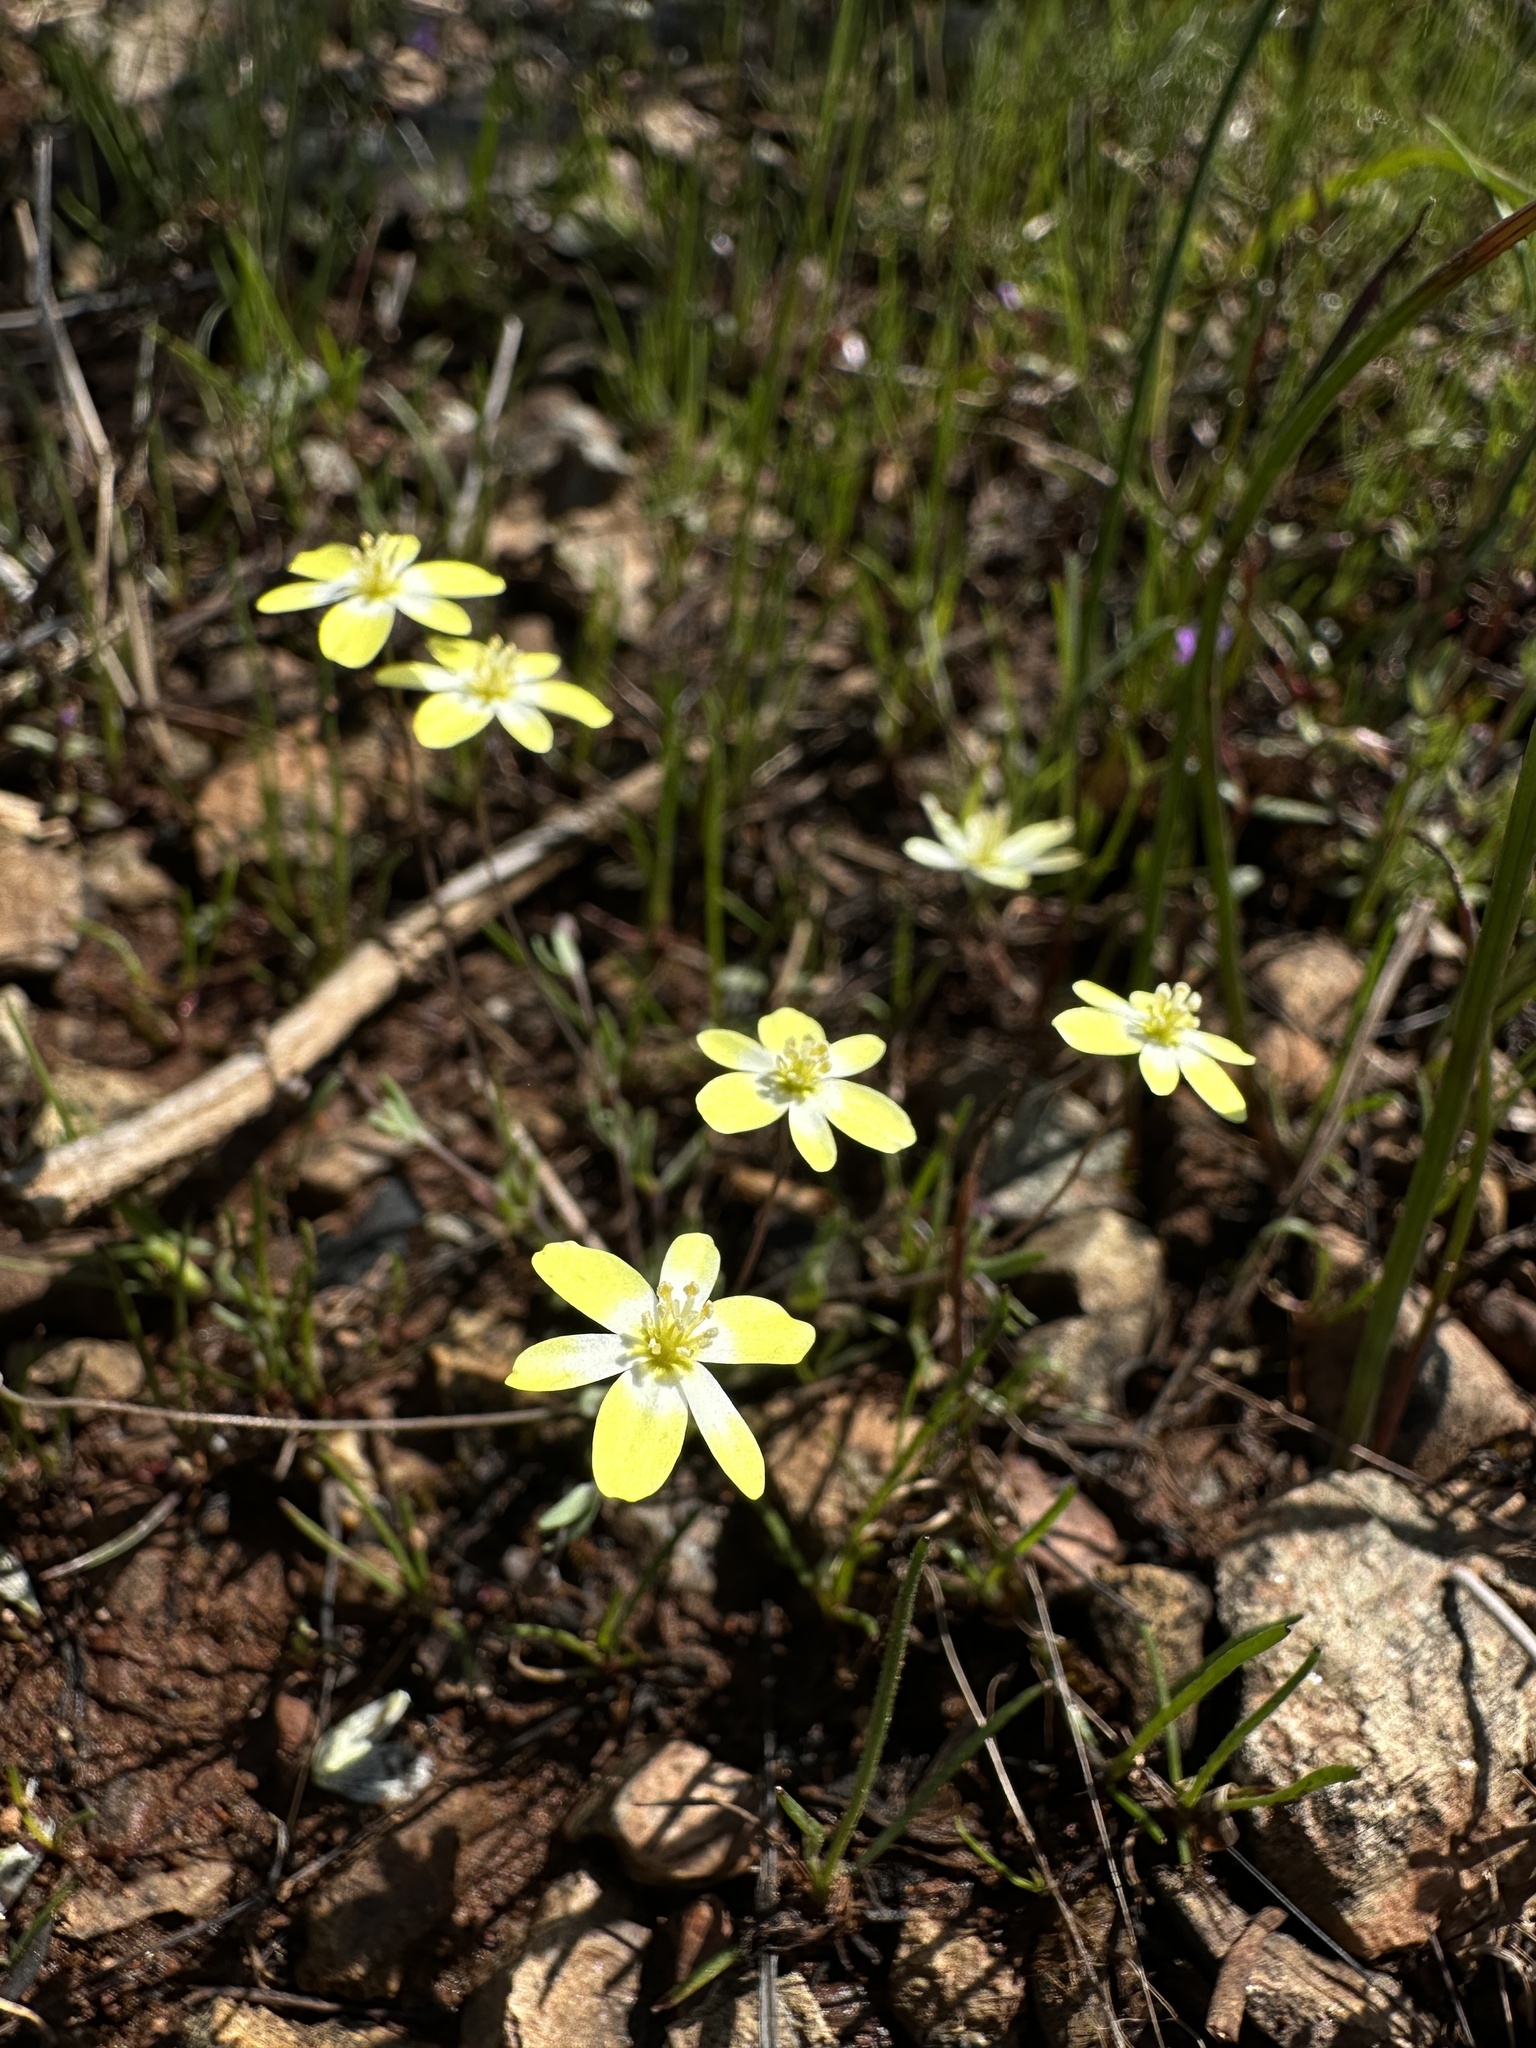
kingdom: Plantae
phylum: Tracheophyta
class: Magnoliopsida
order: Ranunculales
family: Papaveraceae
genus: Platystigma
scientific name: Platystigma lineare
